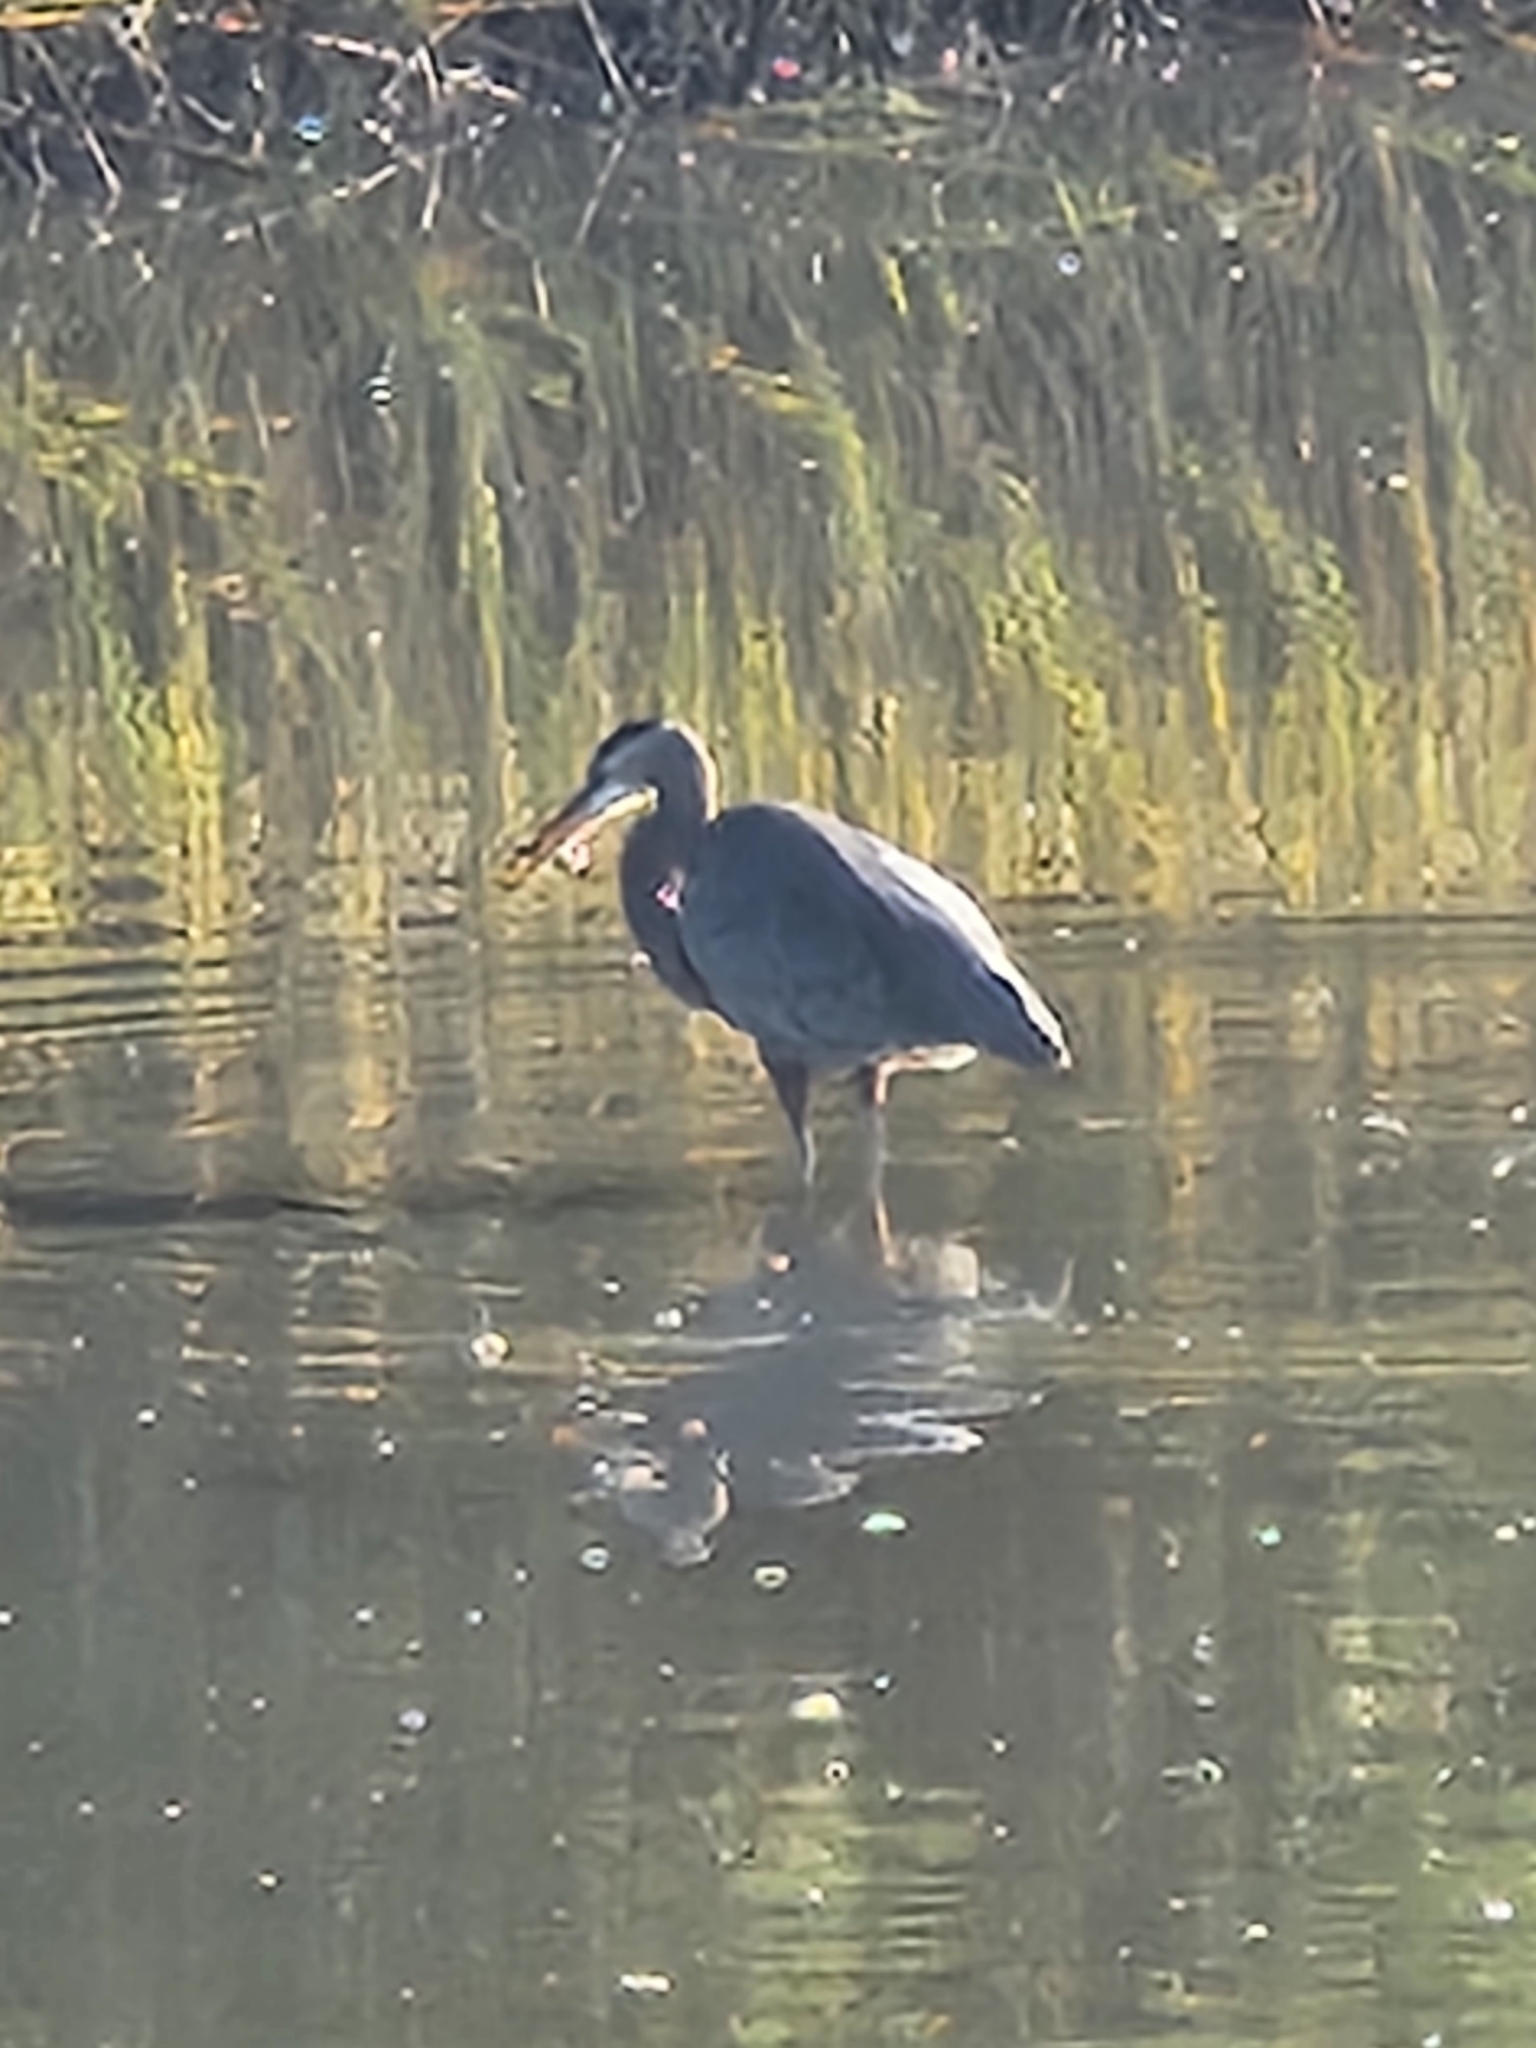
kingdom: Animalia
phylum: Chordata
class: Aves
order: Pelecaniformes
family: Ardeidae
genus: Ardea
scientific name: Ardea herodias
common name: Great blue heron
